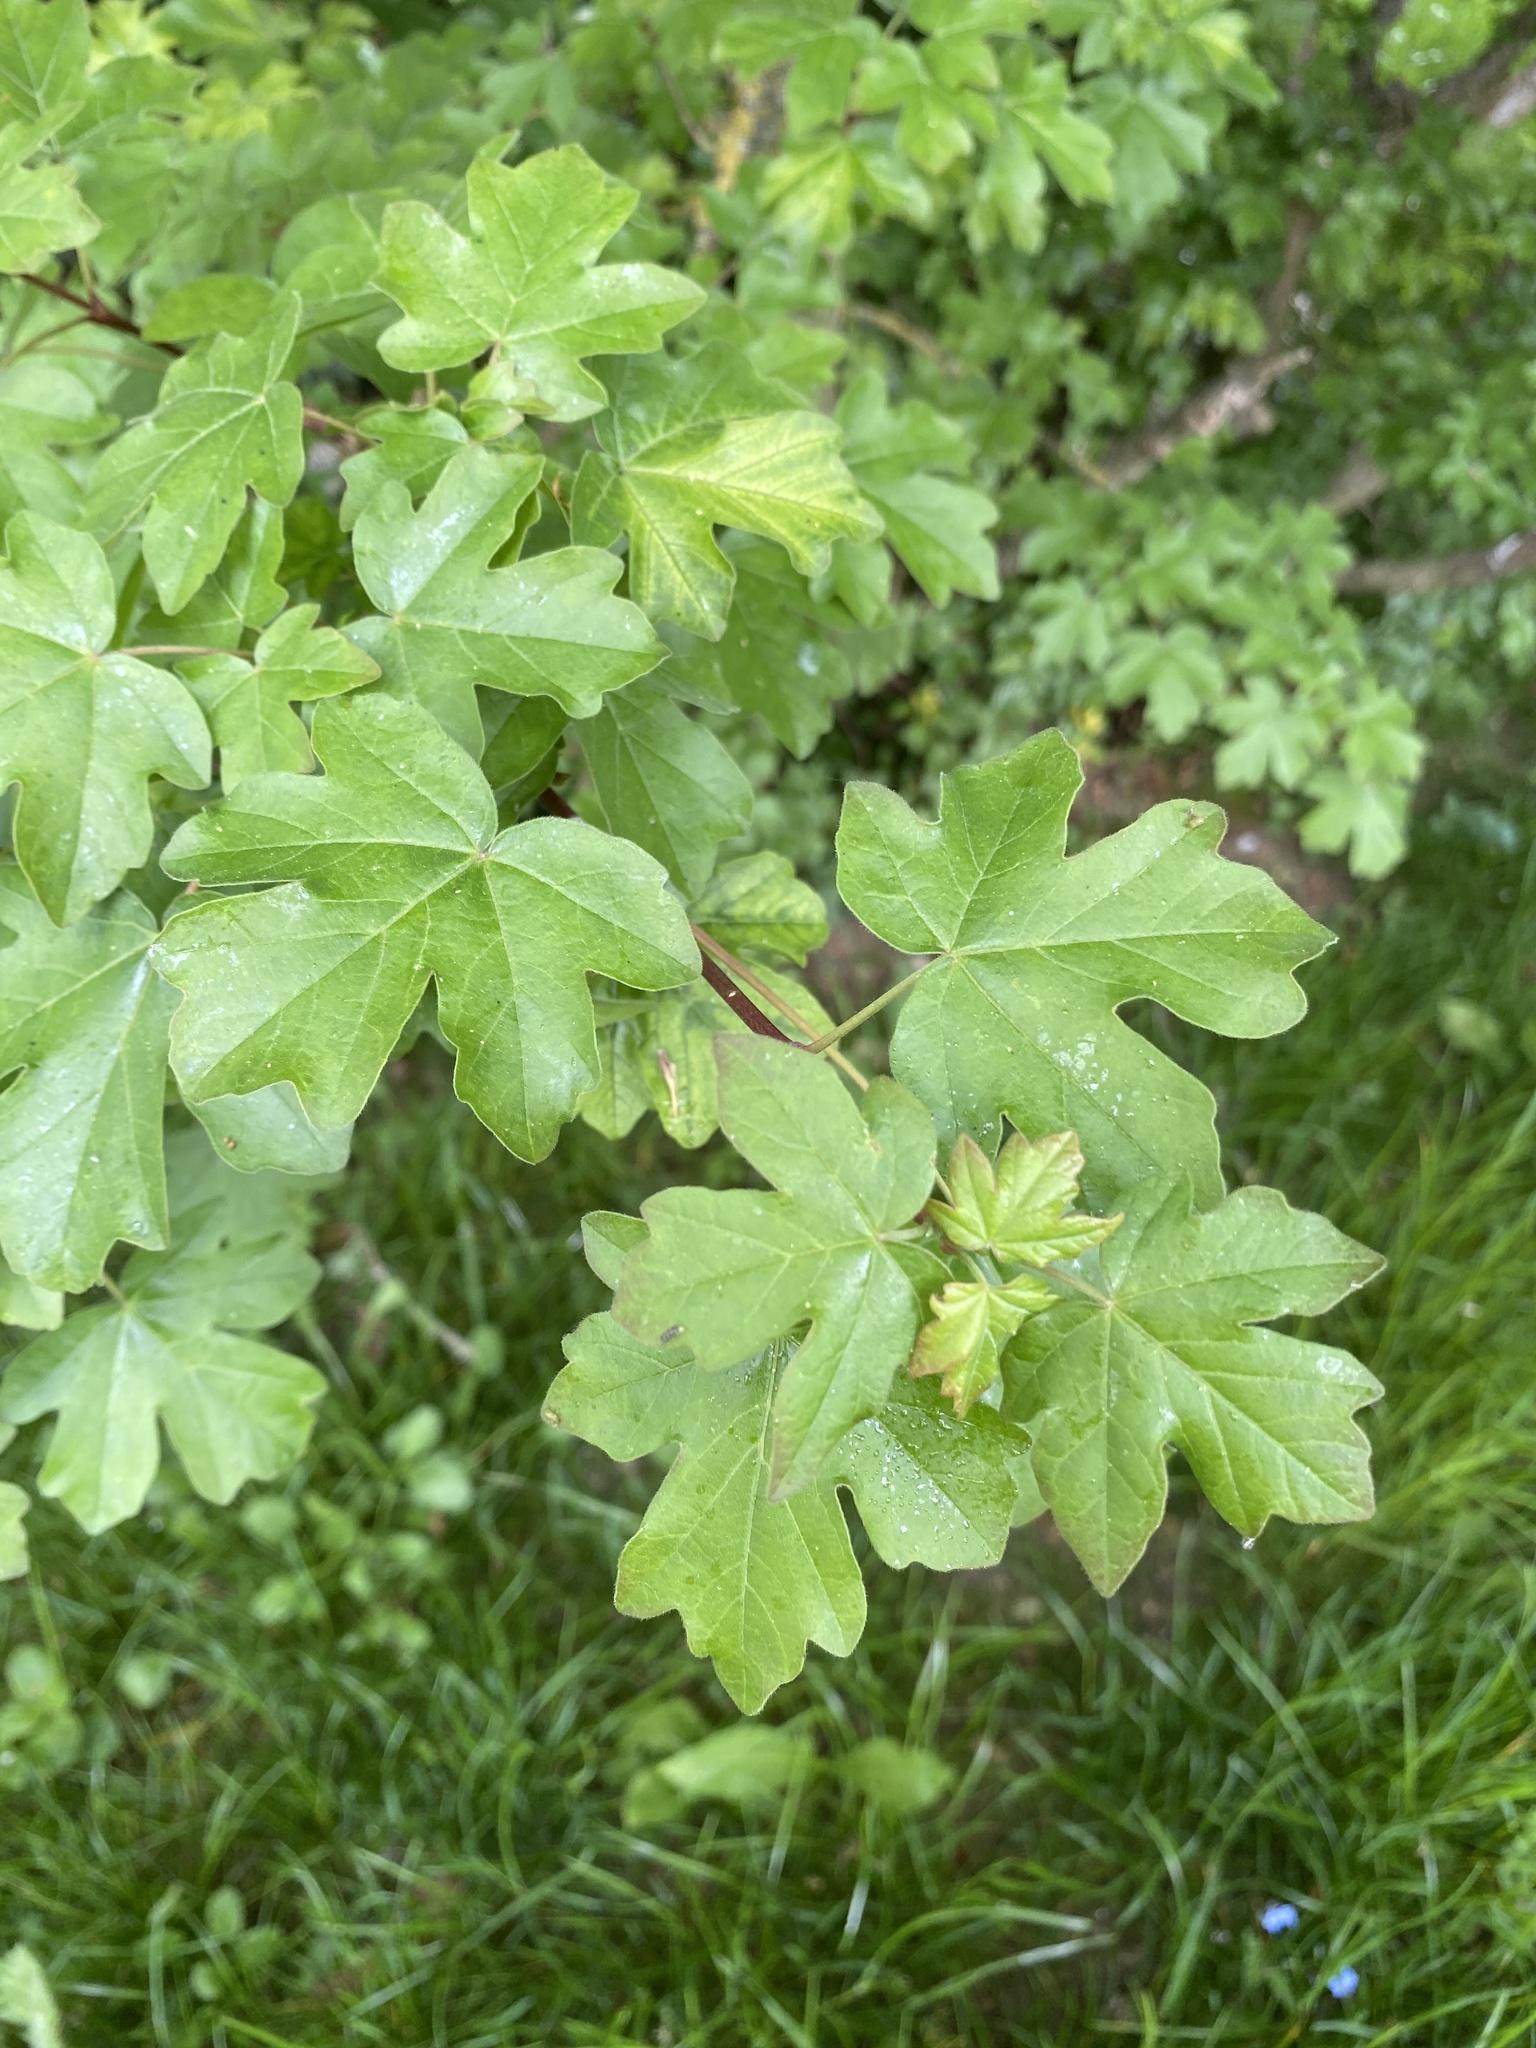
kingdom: Plantae
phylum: Tracheophyta
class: Magnoliopsida
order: Sapindales
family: Sapindaceae
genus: Acer
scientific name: Acer campestre
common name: Field maple
